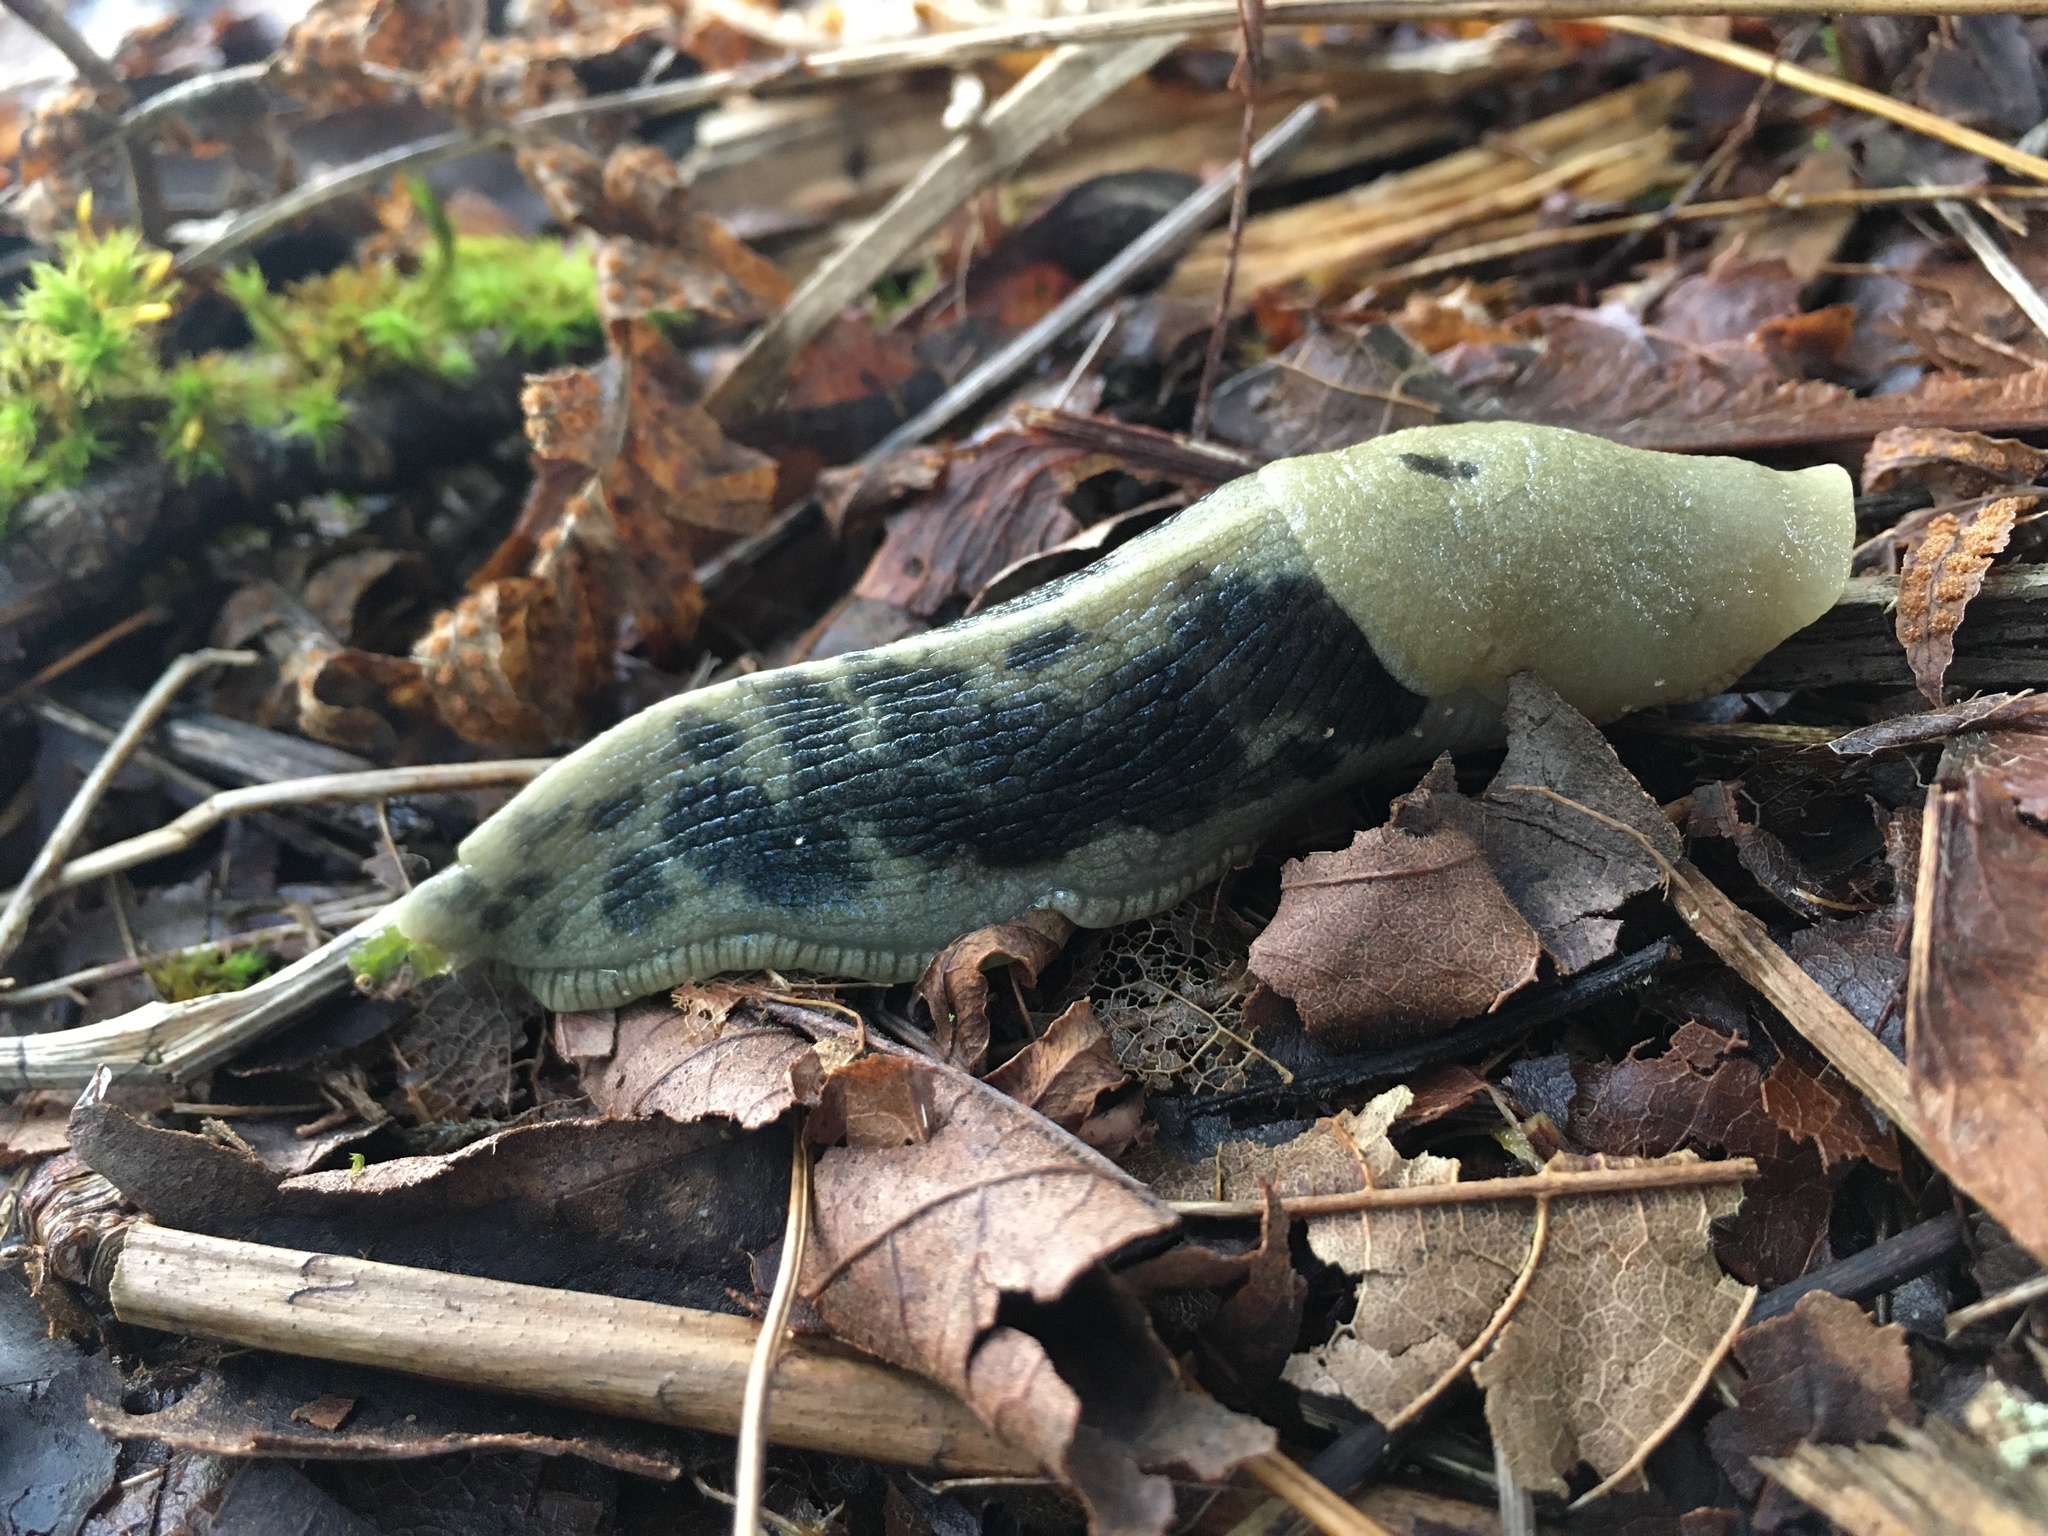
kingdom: Animalia
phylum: Mollusca
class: Gastropoda
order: Stylommatophora
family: Ariolimacidae
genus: Ariolimax
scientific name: Ariolimax columbianus
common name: Pacific banana slug
